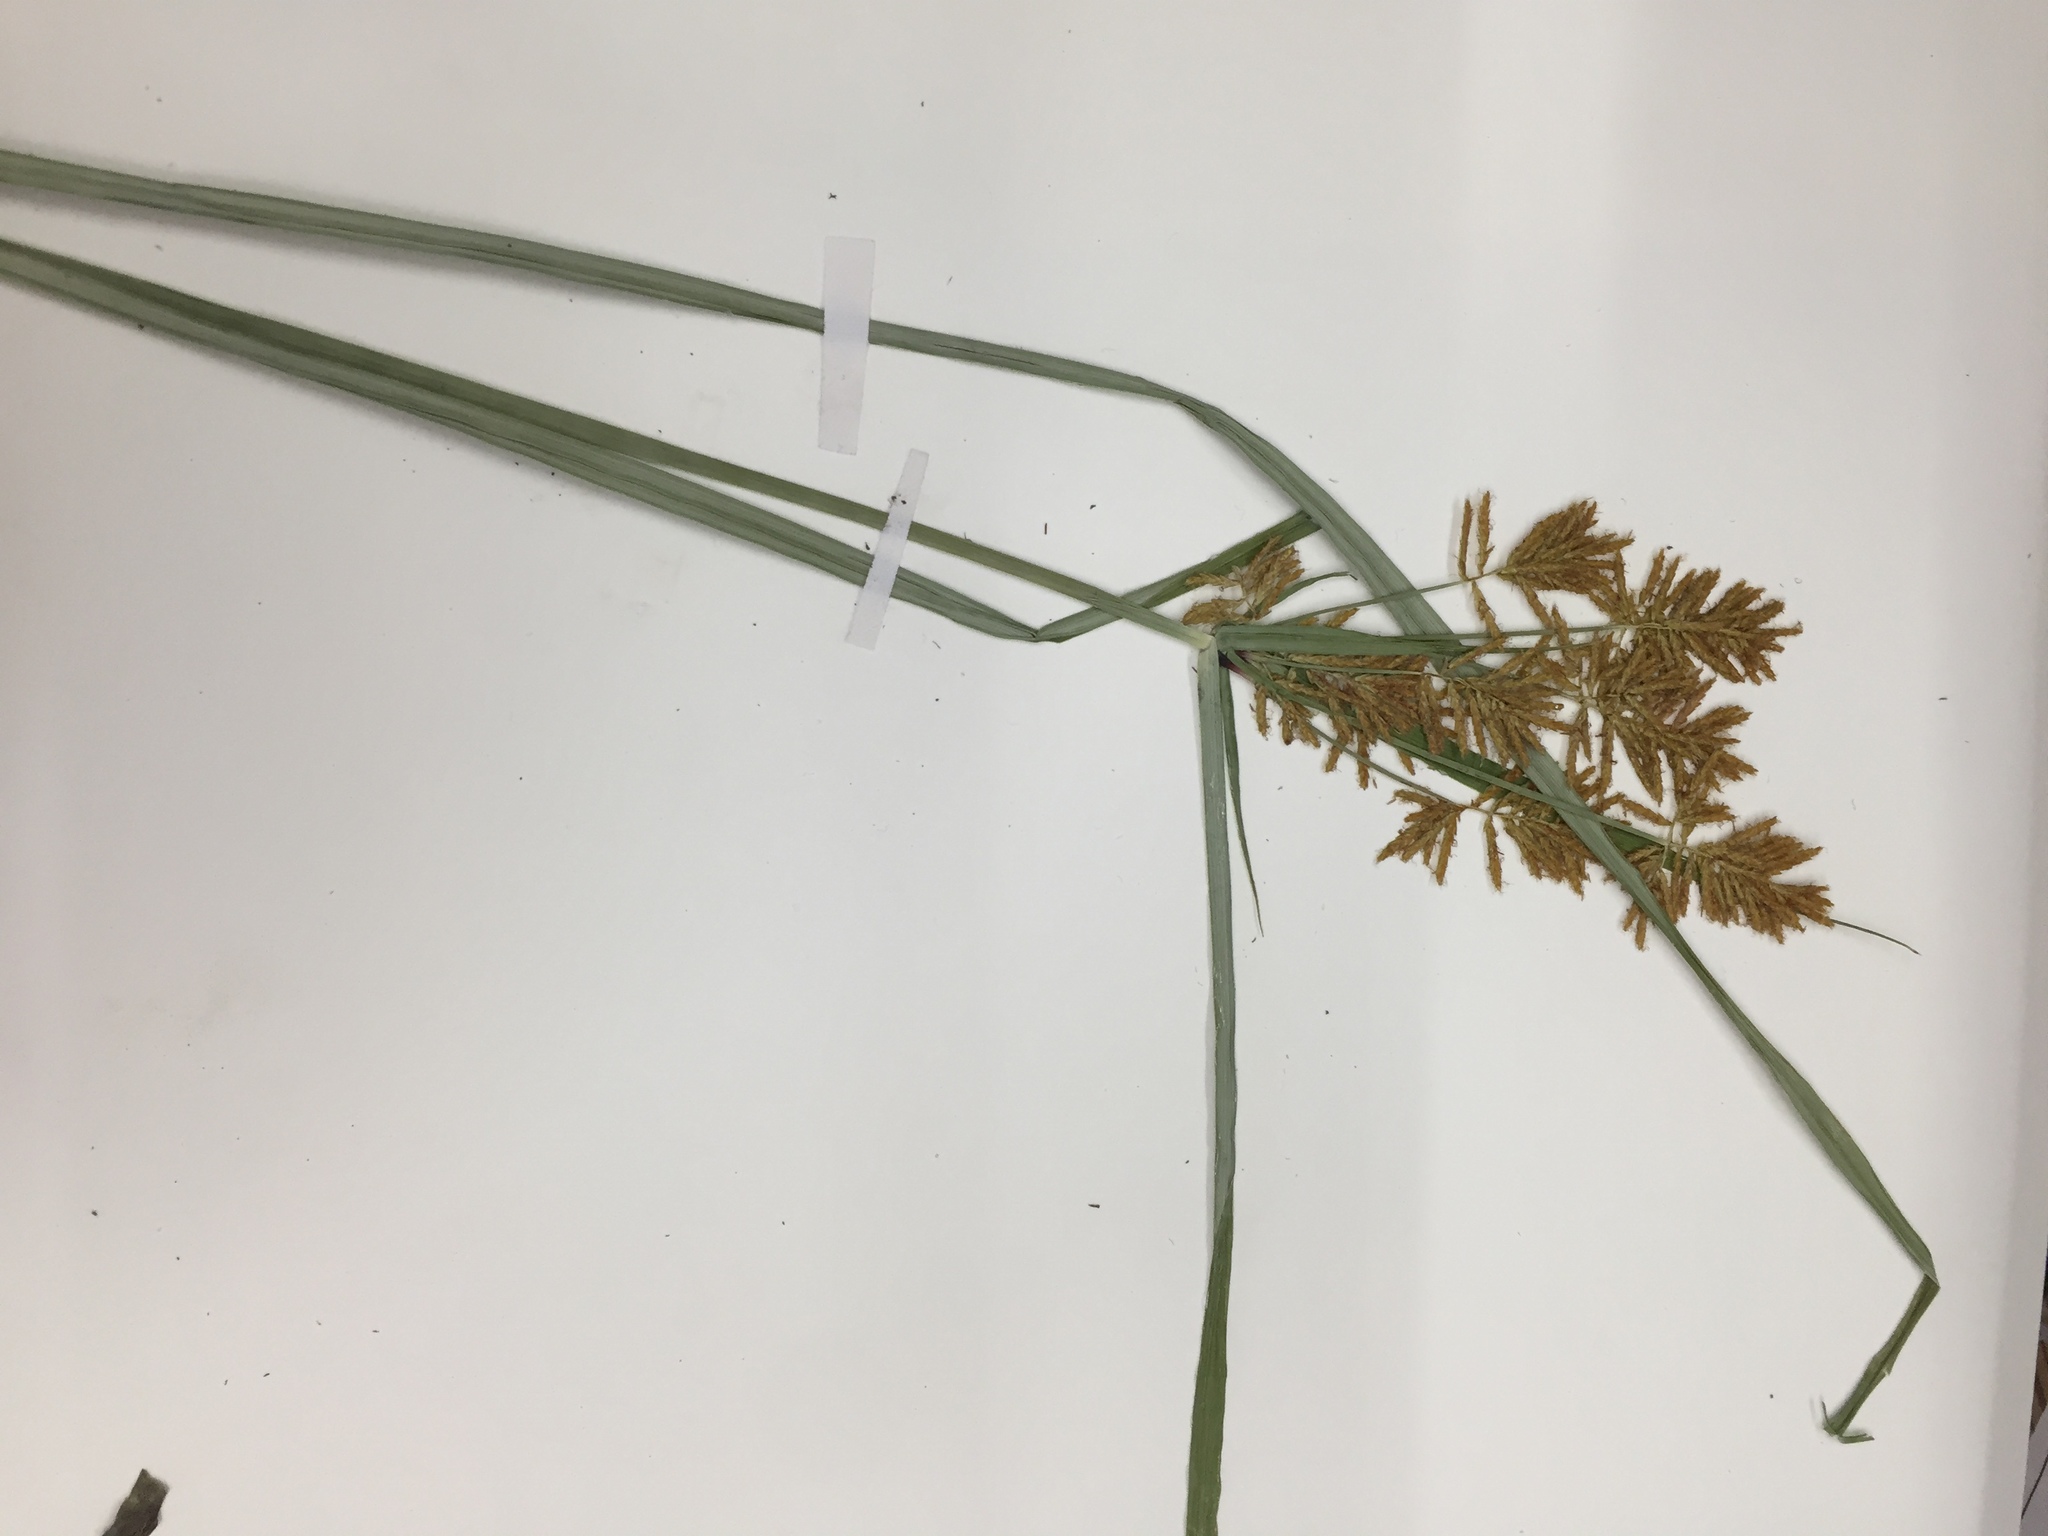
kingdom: Plantae
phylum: Tracheophyta
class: Liliopsida
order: Poales
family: Cyperaceae
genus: Cyperus
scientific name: Cyperus esculentus
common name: Yellow nutsedge
